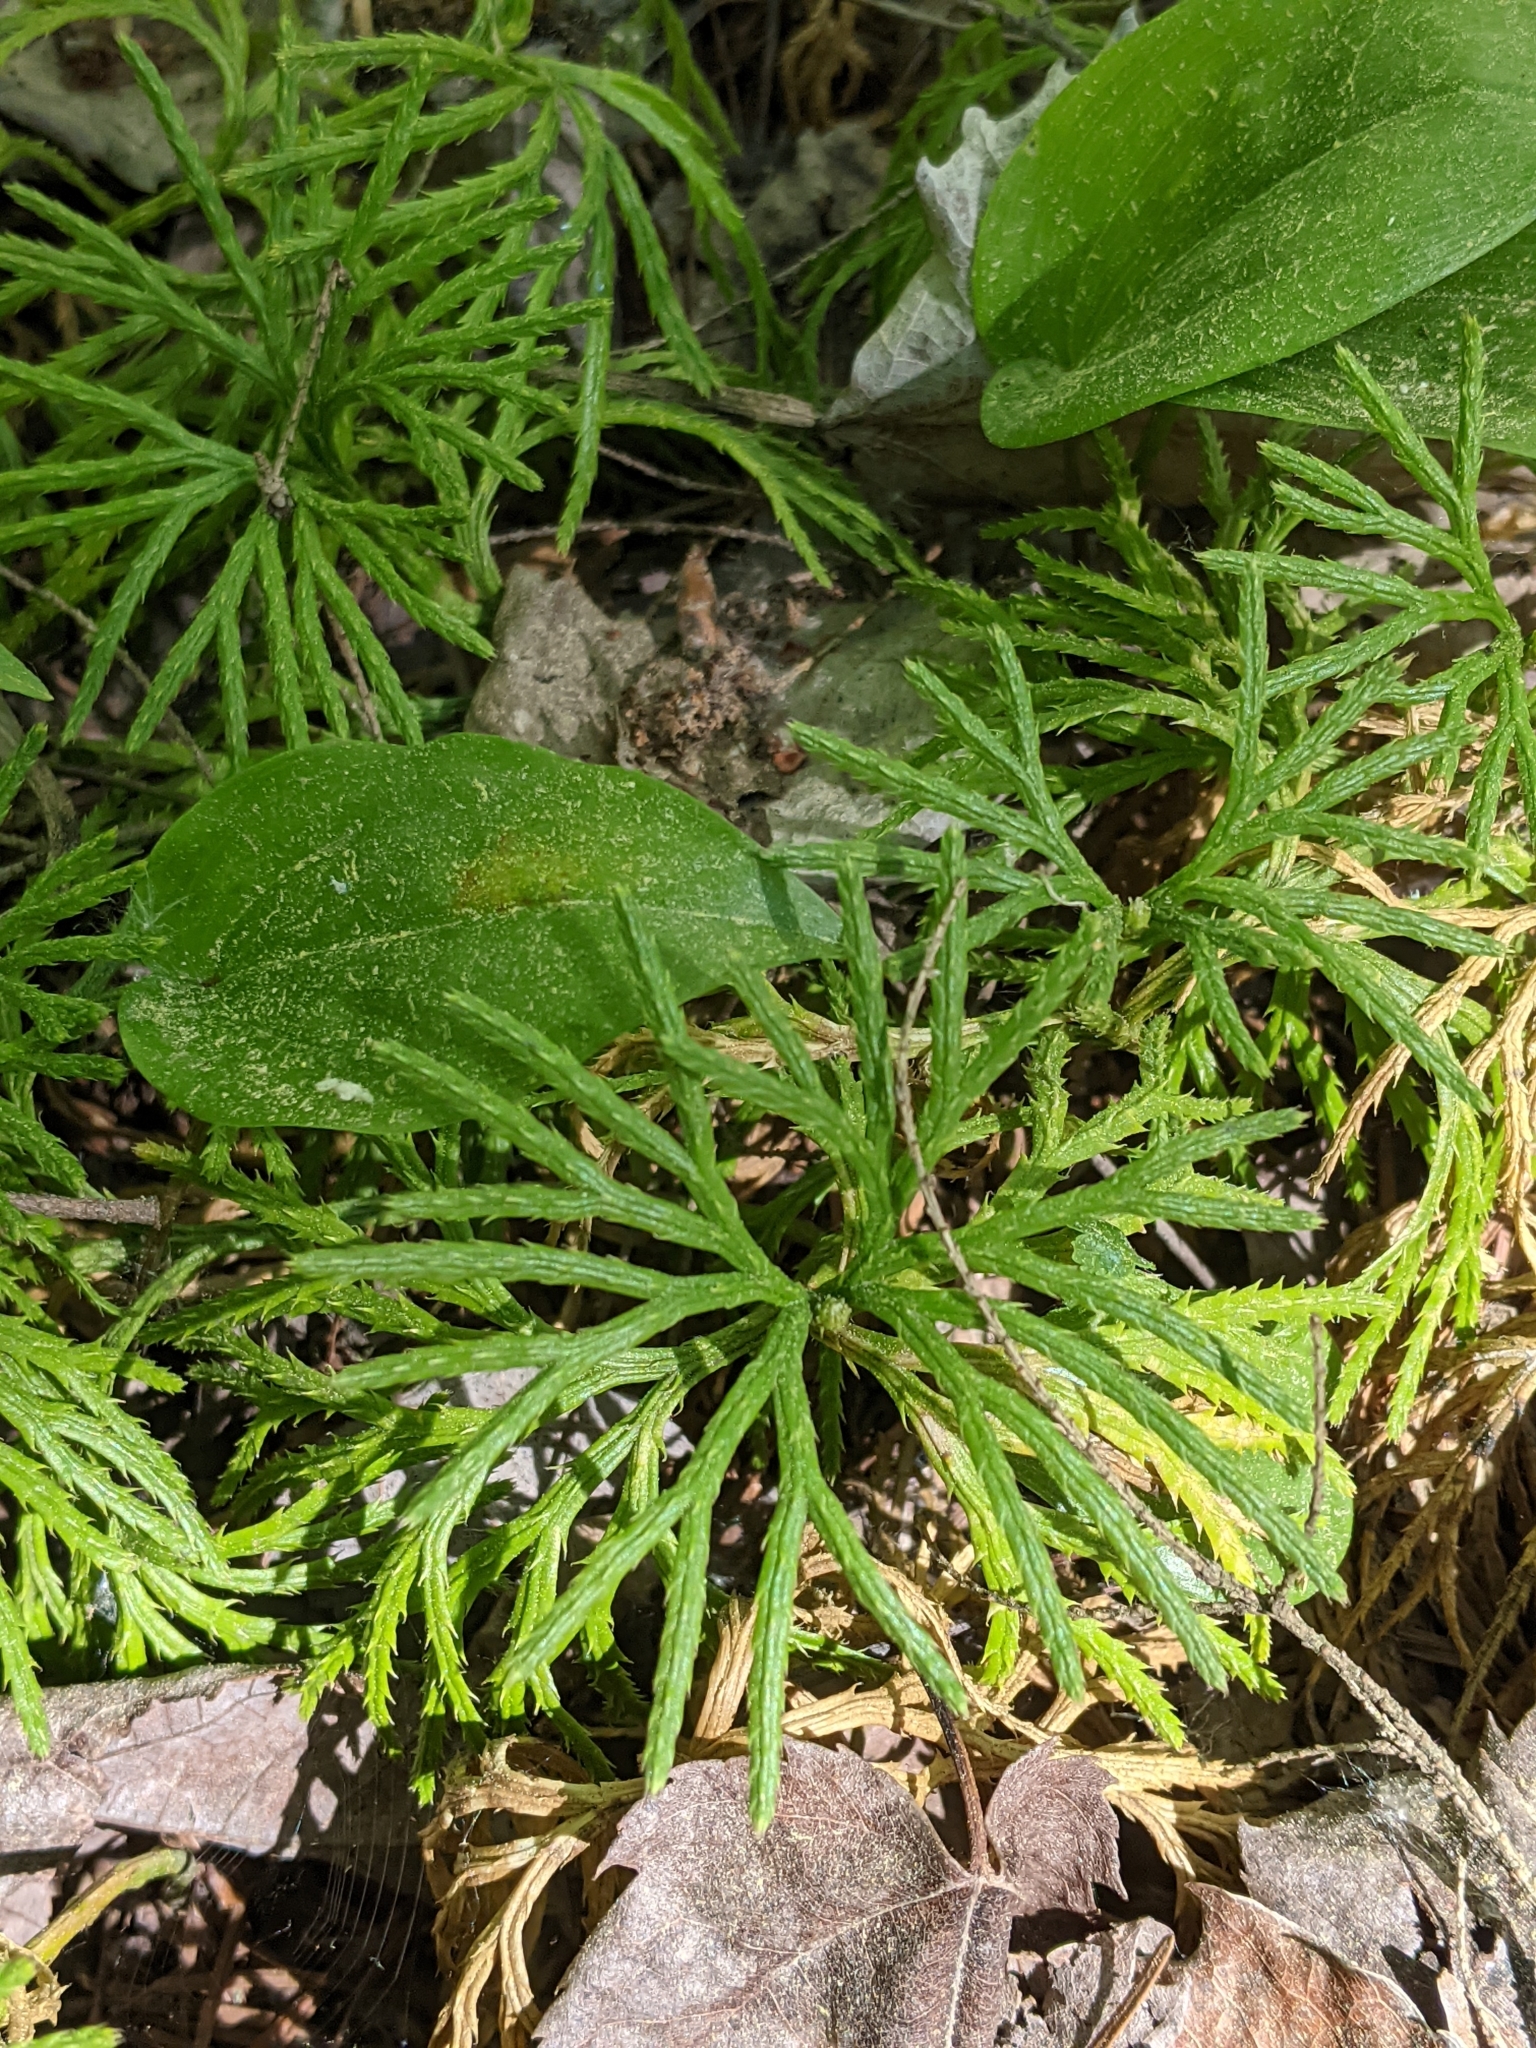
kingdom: Plantae
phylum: Tracheophyta
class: Lycopodiopsida
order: Lycopodiales
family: Lycopodiaceae
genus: Diphasiastrum
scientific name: Diphasiastrum digitatum
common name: Southern running-pine
